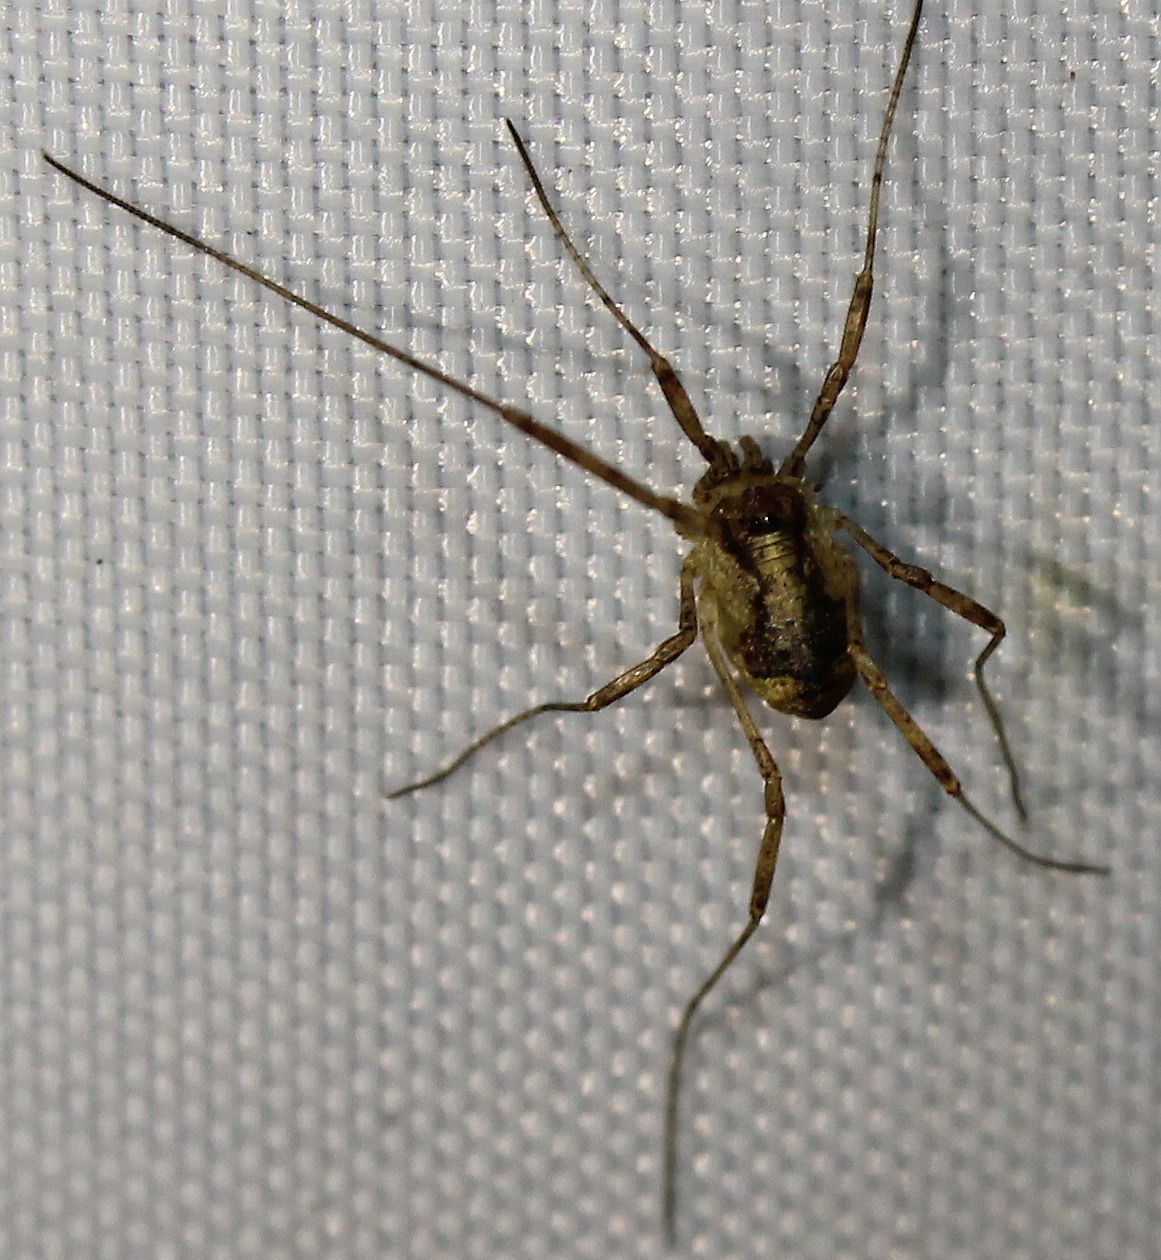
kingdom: Animalia
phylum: Arthropoda
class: Arachnida
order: Opiliones
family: Phalangiidae
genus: Paroligolophus
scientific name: Paroligolophus agrestis
